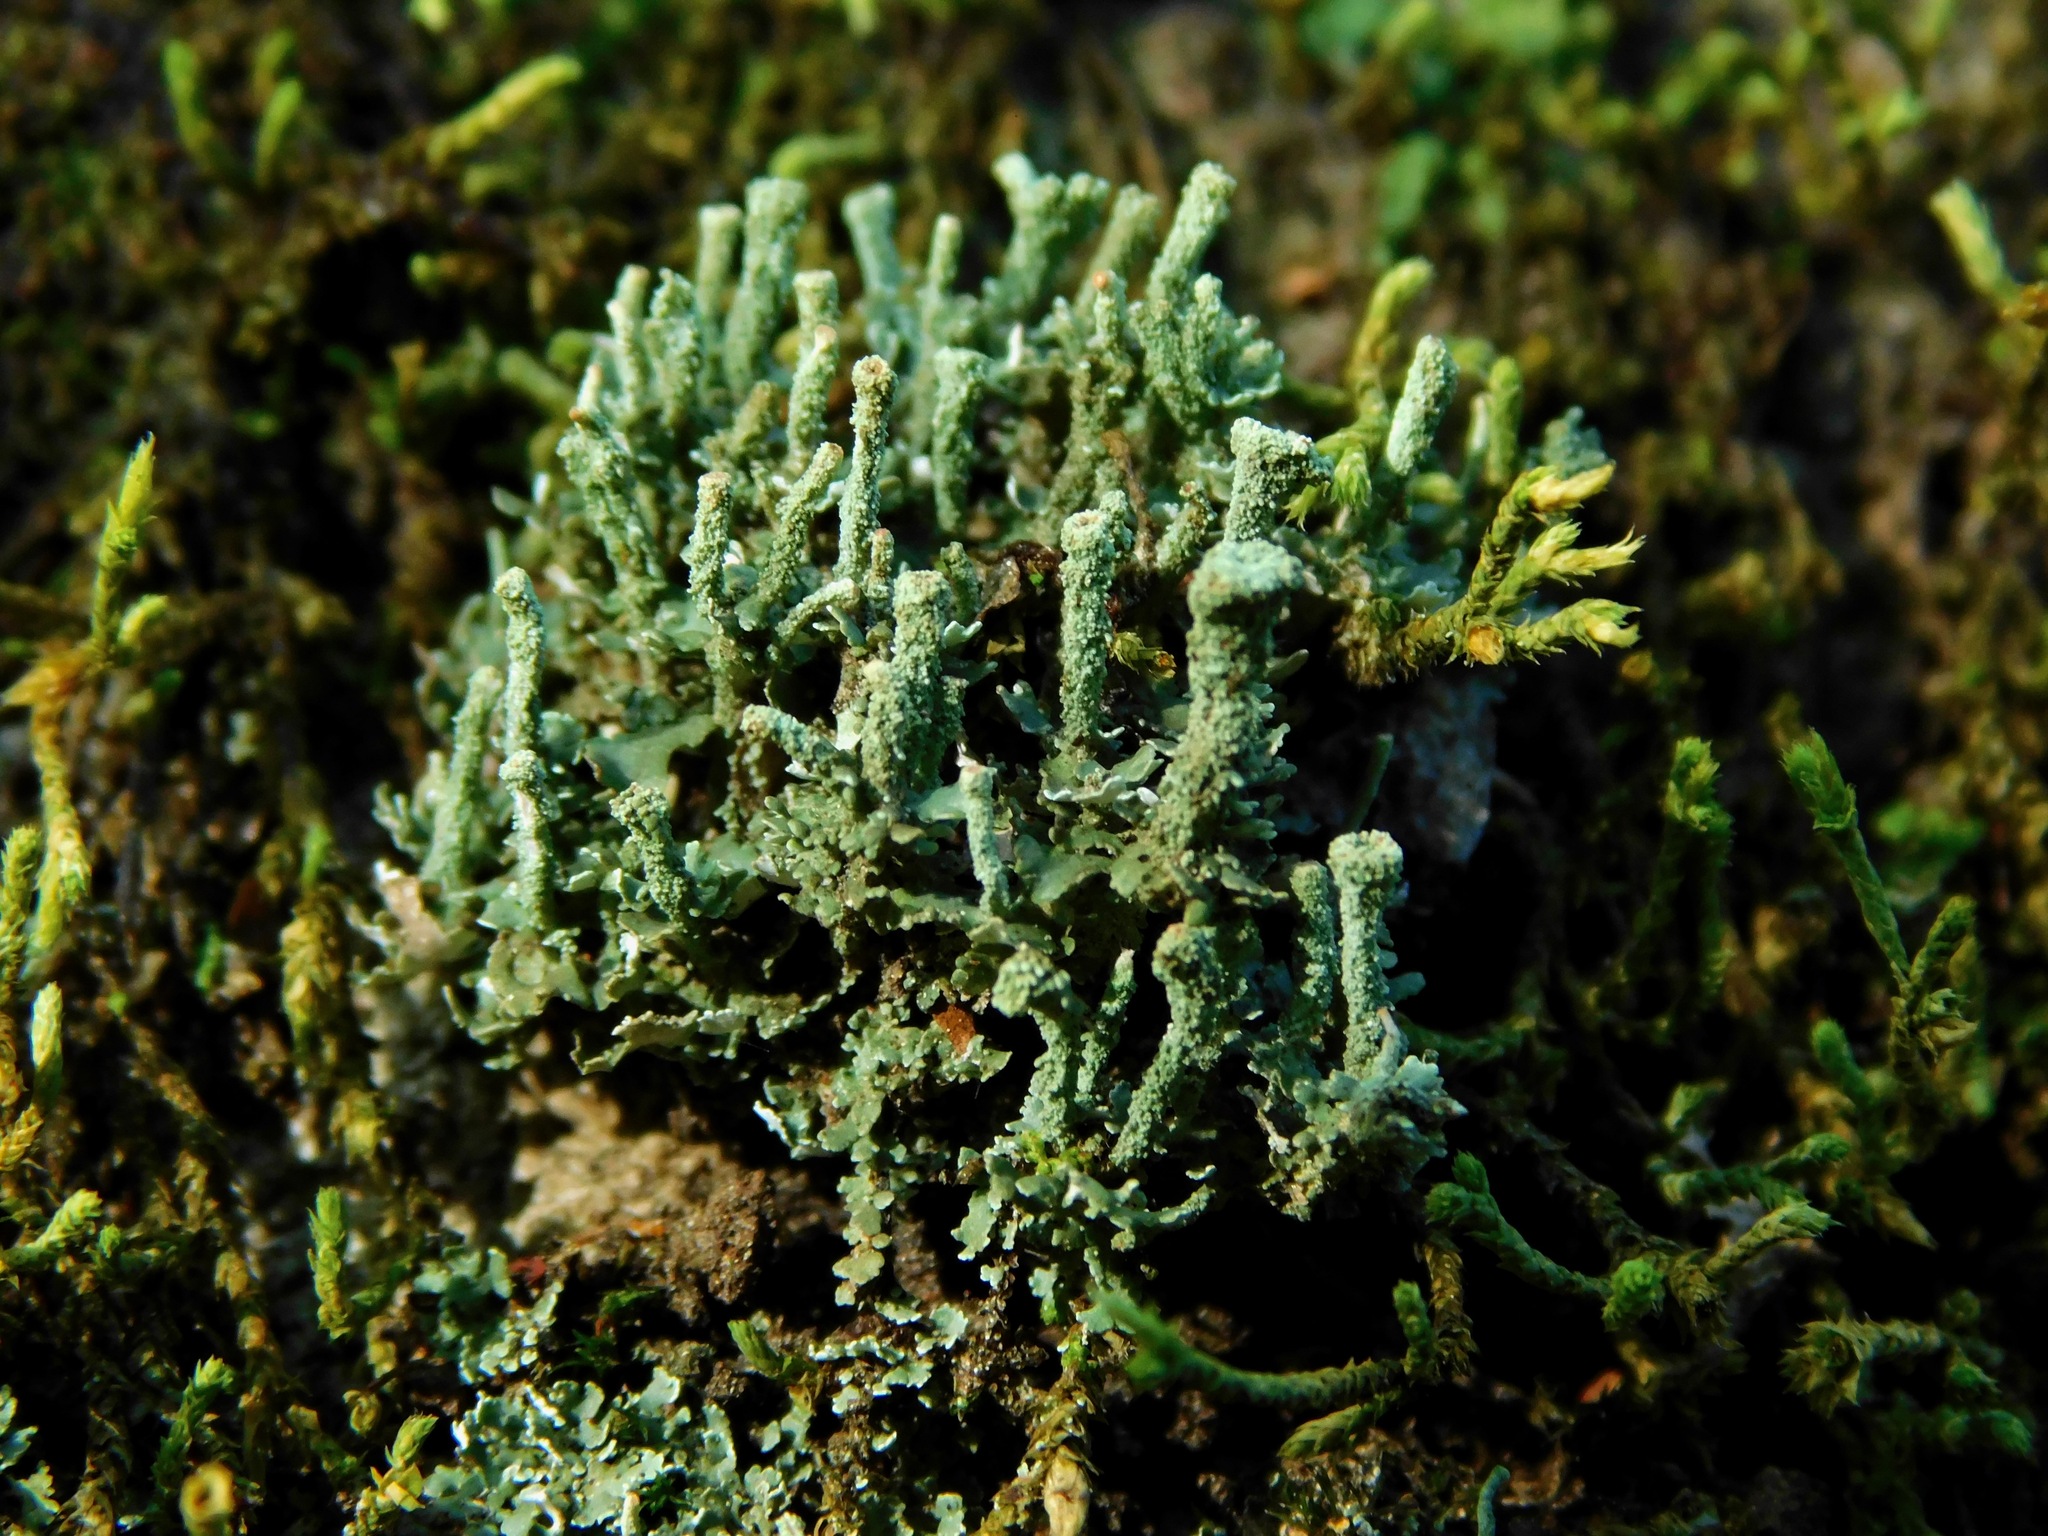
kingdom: Fungi
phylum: Ascomycota
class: Lecanoromycetes
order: Lecanorales
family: Cladoniaceae
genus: Cladonia
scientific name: Cladonia chlorophaea
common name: Mealy pixie cup
